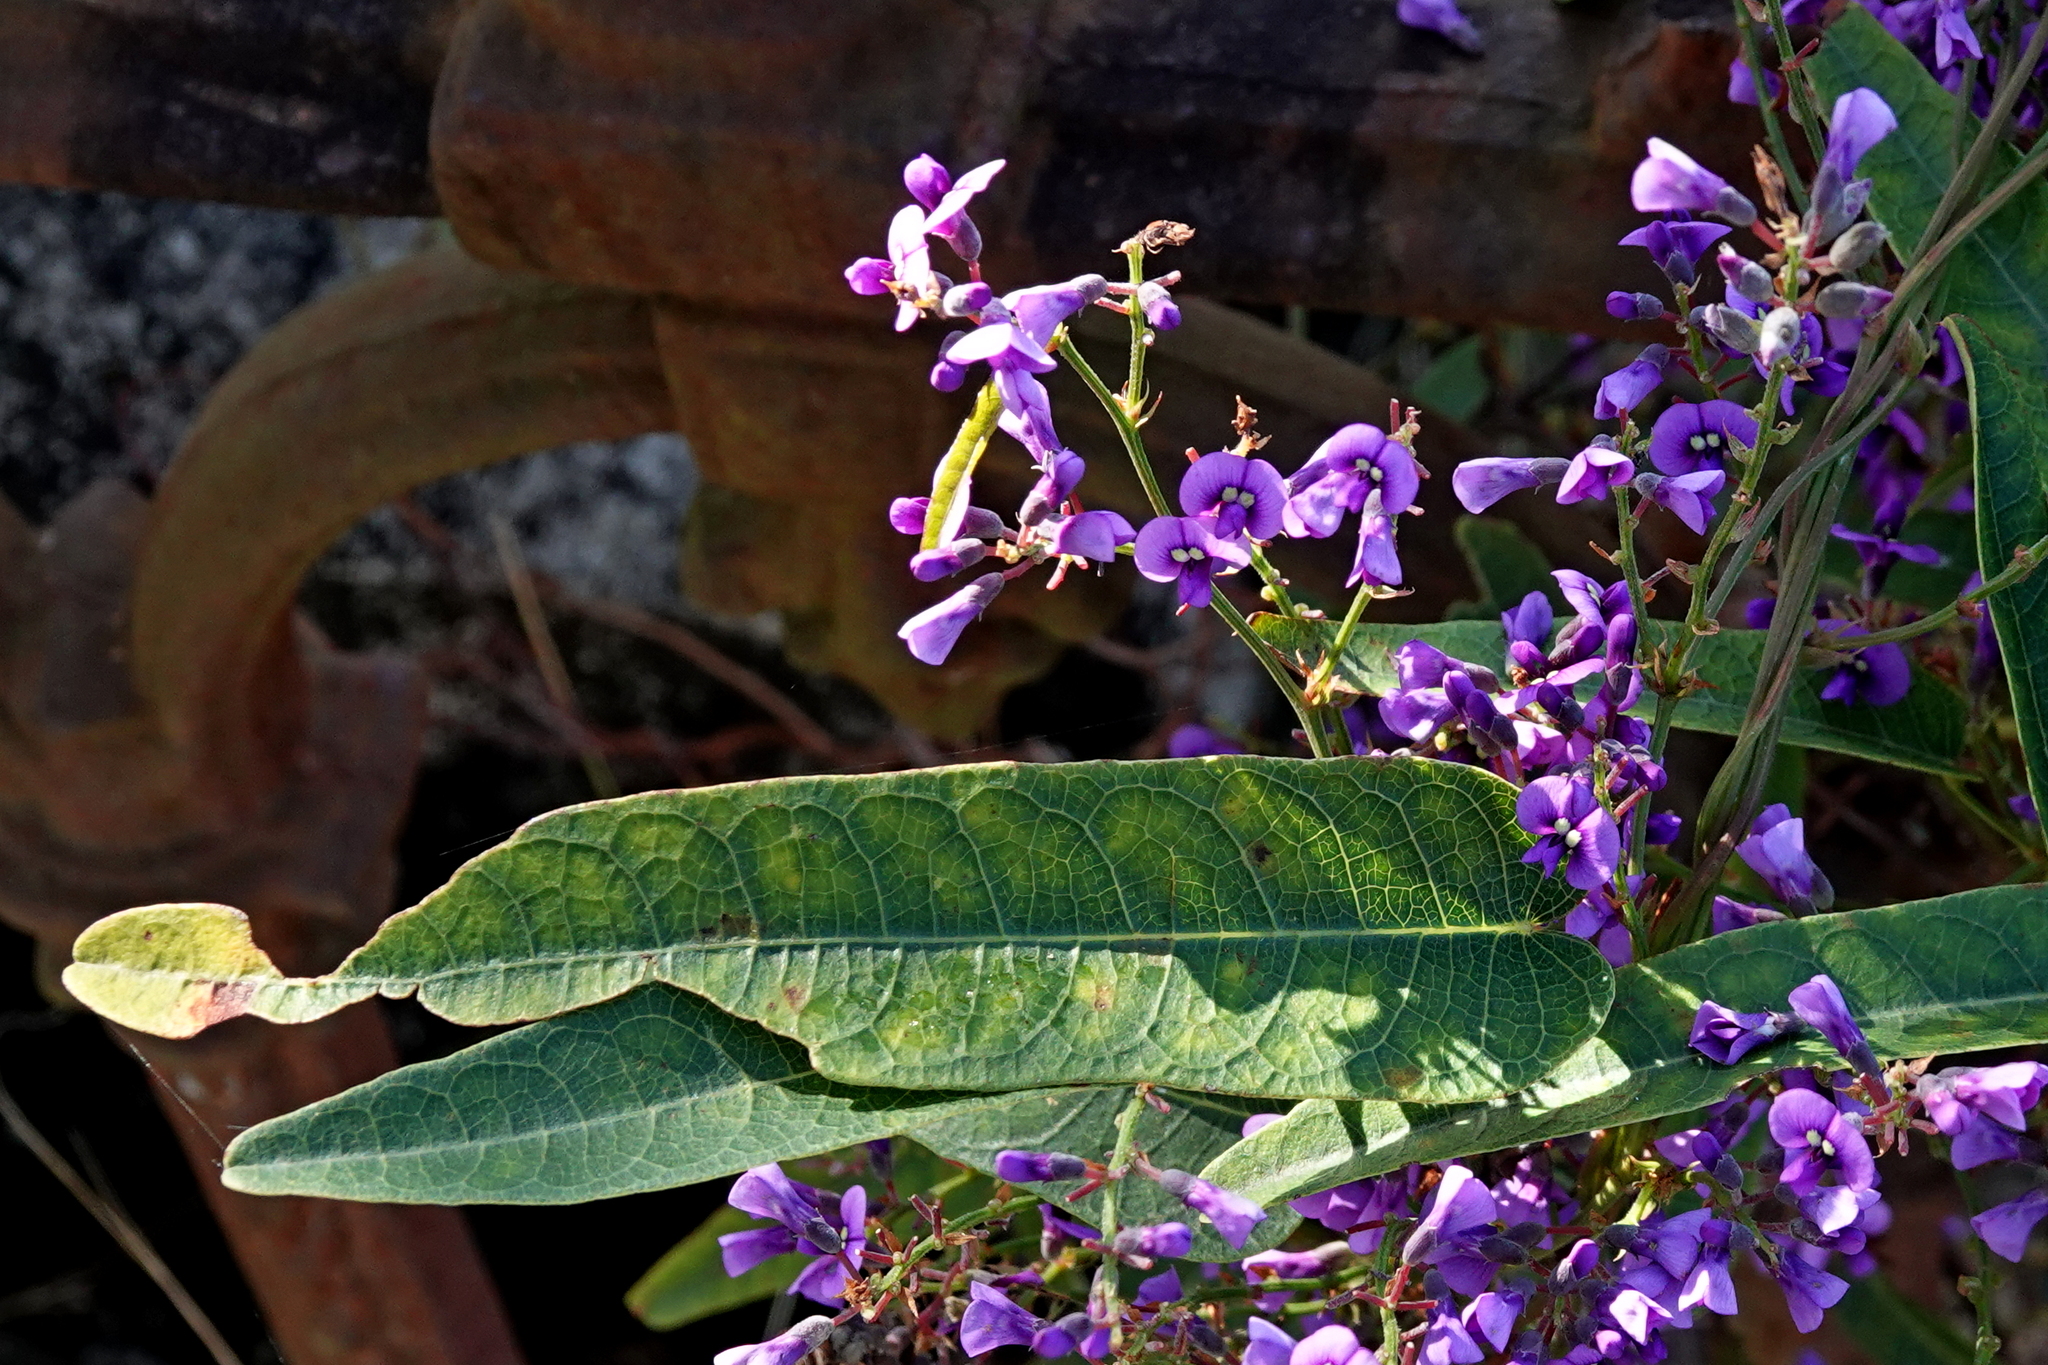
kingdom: Plantae
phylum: Tracheophyta
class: Magnoliopsida
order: Fabales
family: Fabaceae
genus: Hardenbergia
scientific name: Hardenbergia violacea
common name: Coral-pea
